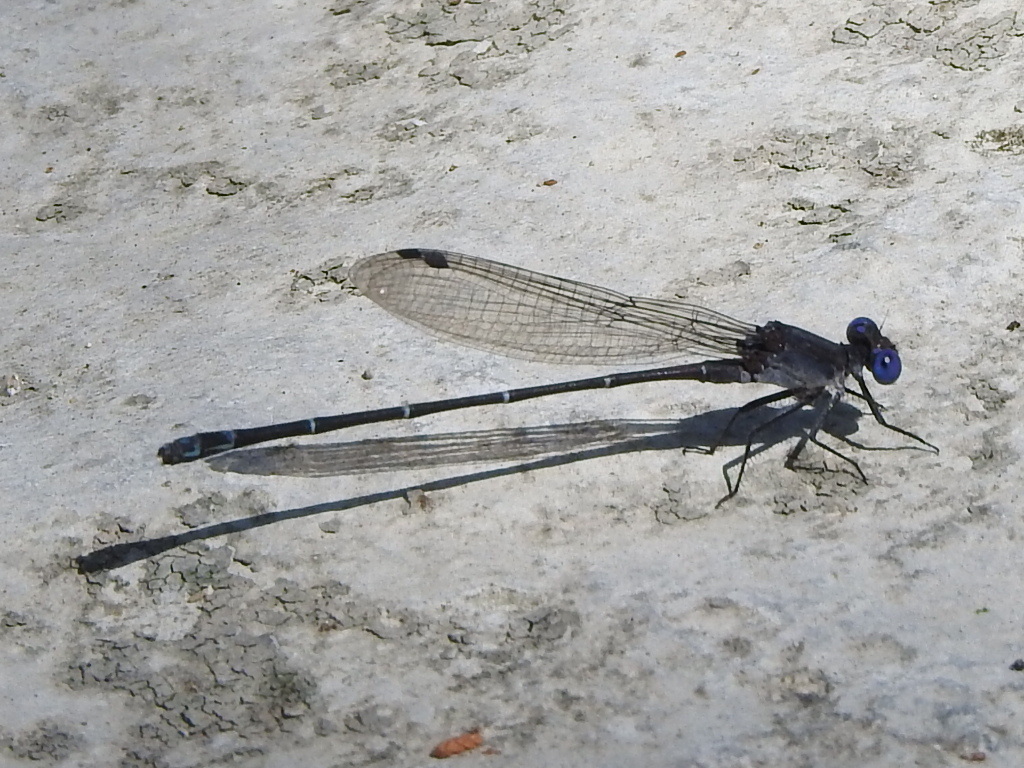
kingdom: Animalia
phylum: Arthropoda
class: Insecta
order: Odonata
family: Coenagrionidae
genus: Argia
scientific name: Argia translata
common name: Dusky dancer
